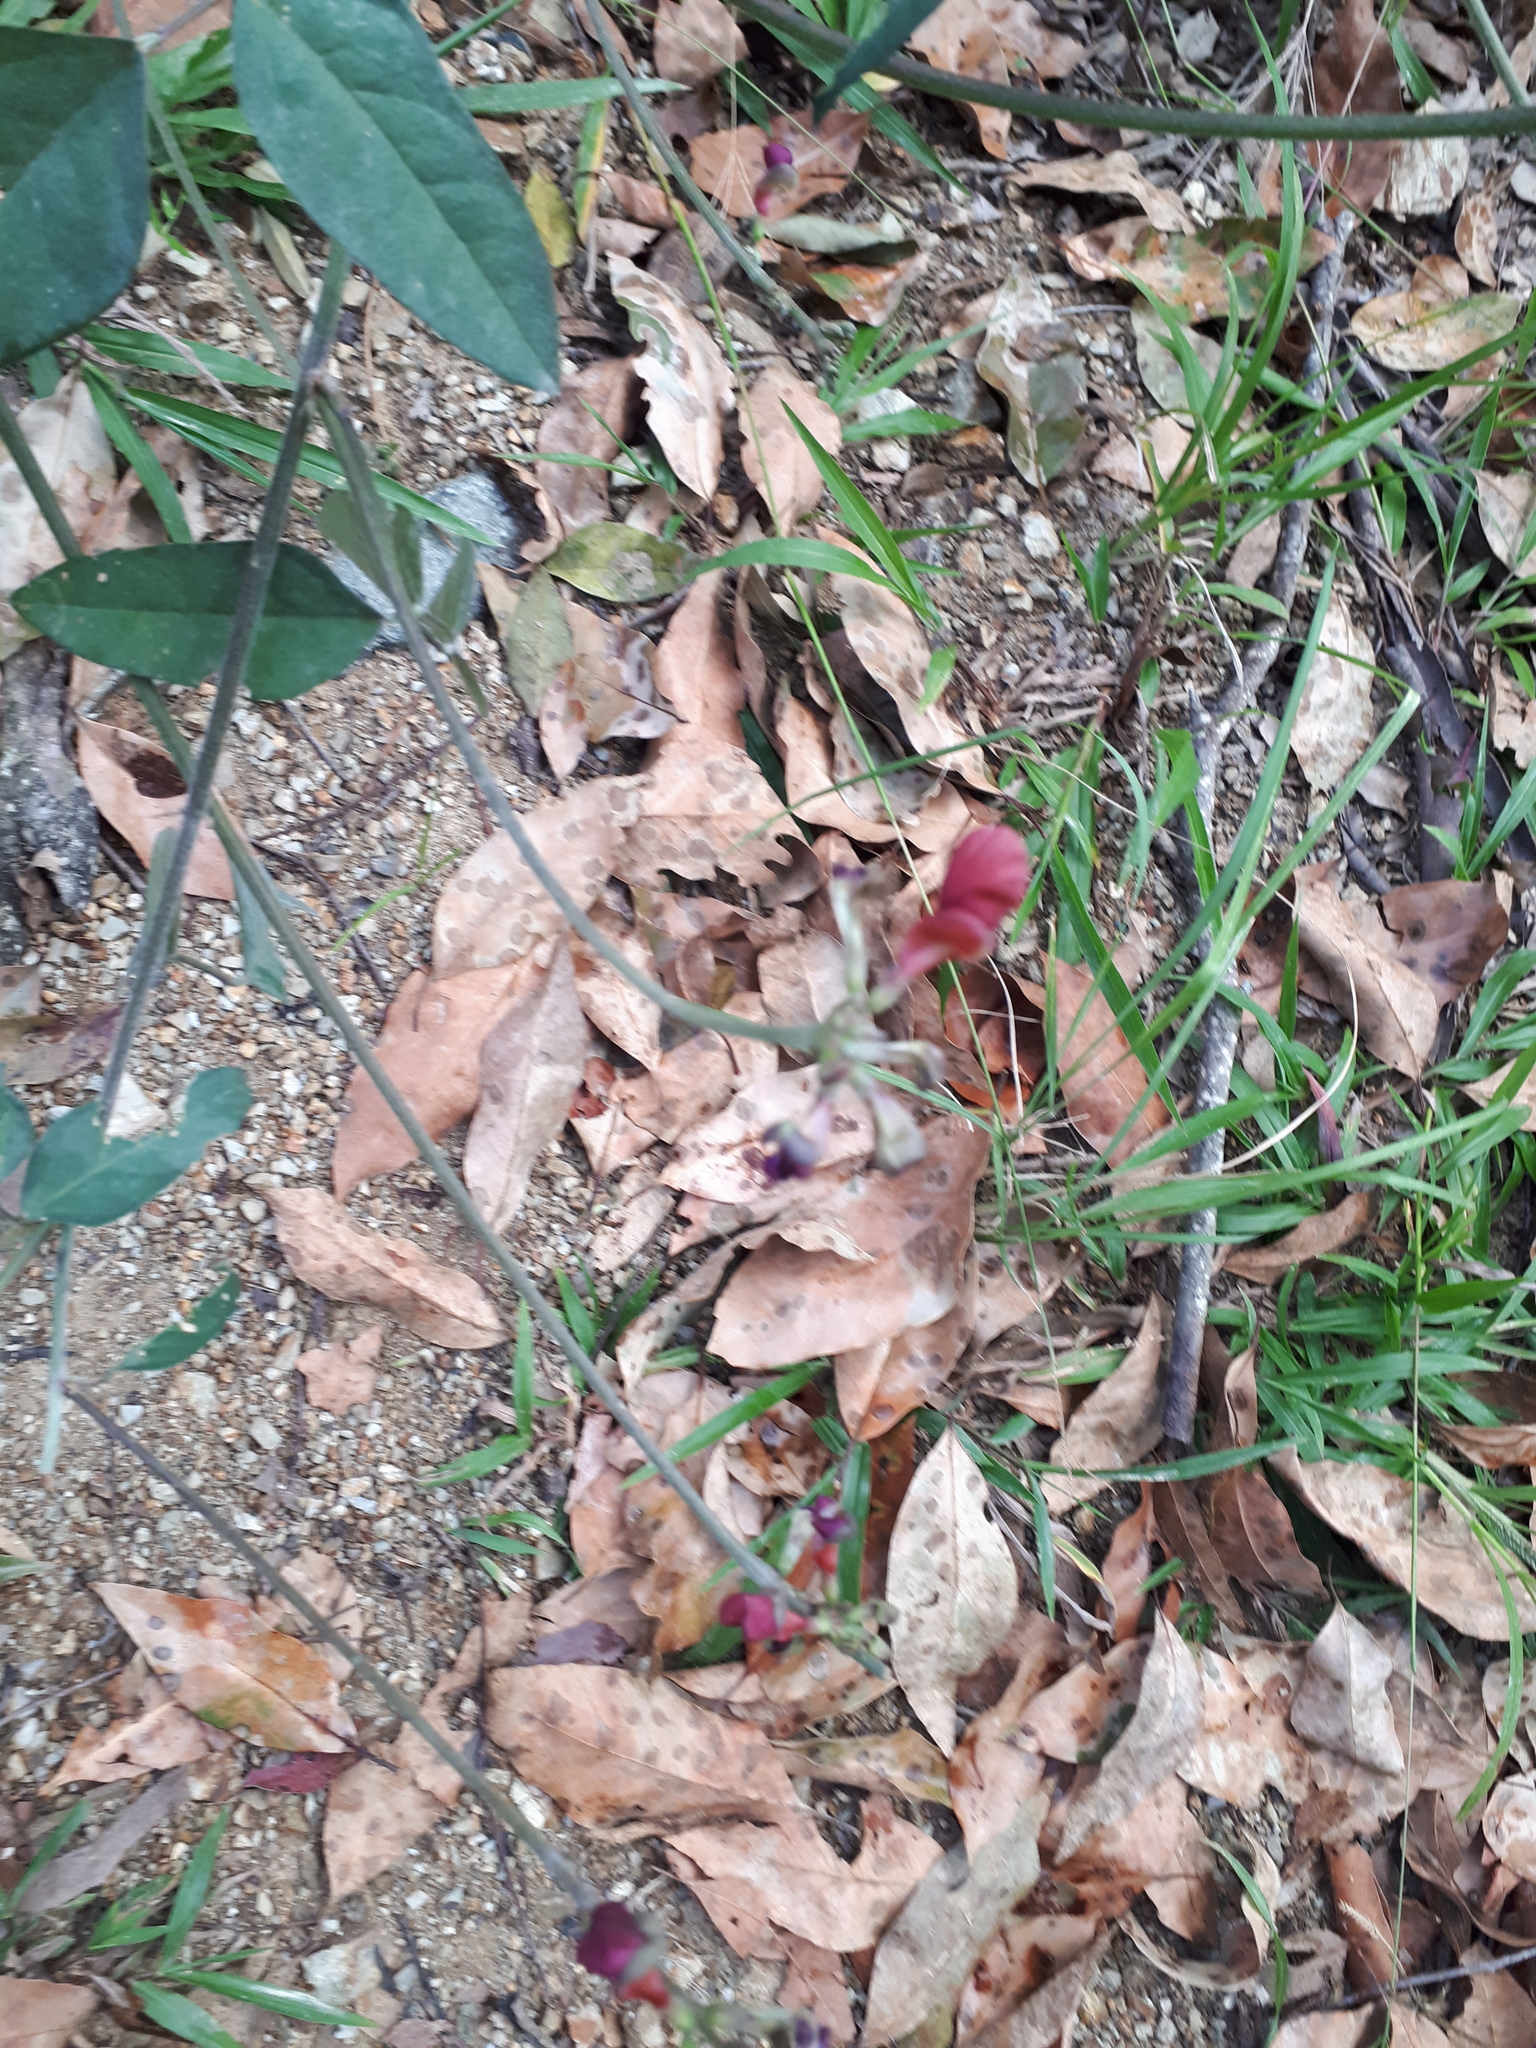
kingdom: Plantae
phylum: Tracheophyta
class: Magnoliopsida
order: Fabales
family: Fabaceae
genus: Macroptilium
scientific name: Macroptilium lathyroides
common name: Wild bushbean
